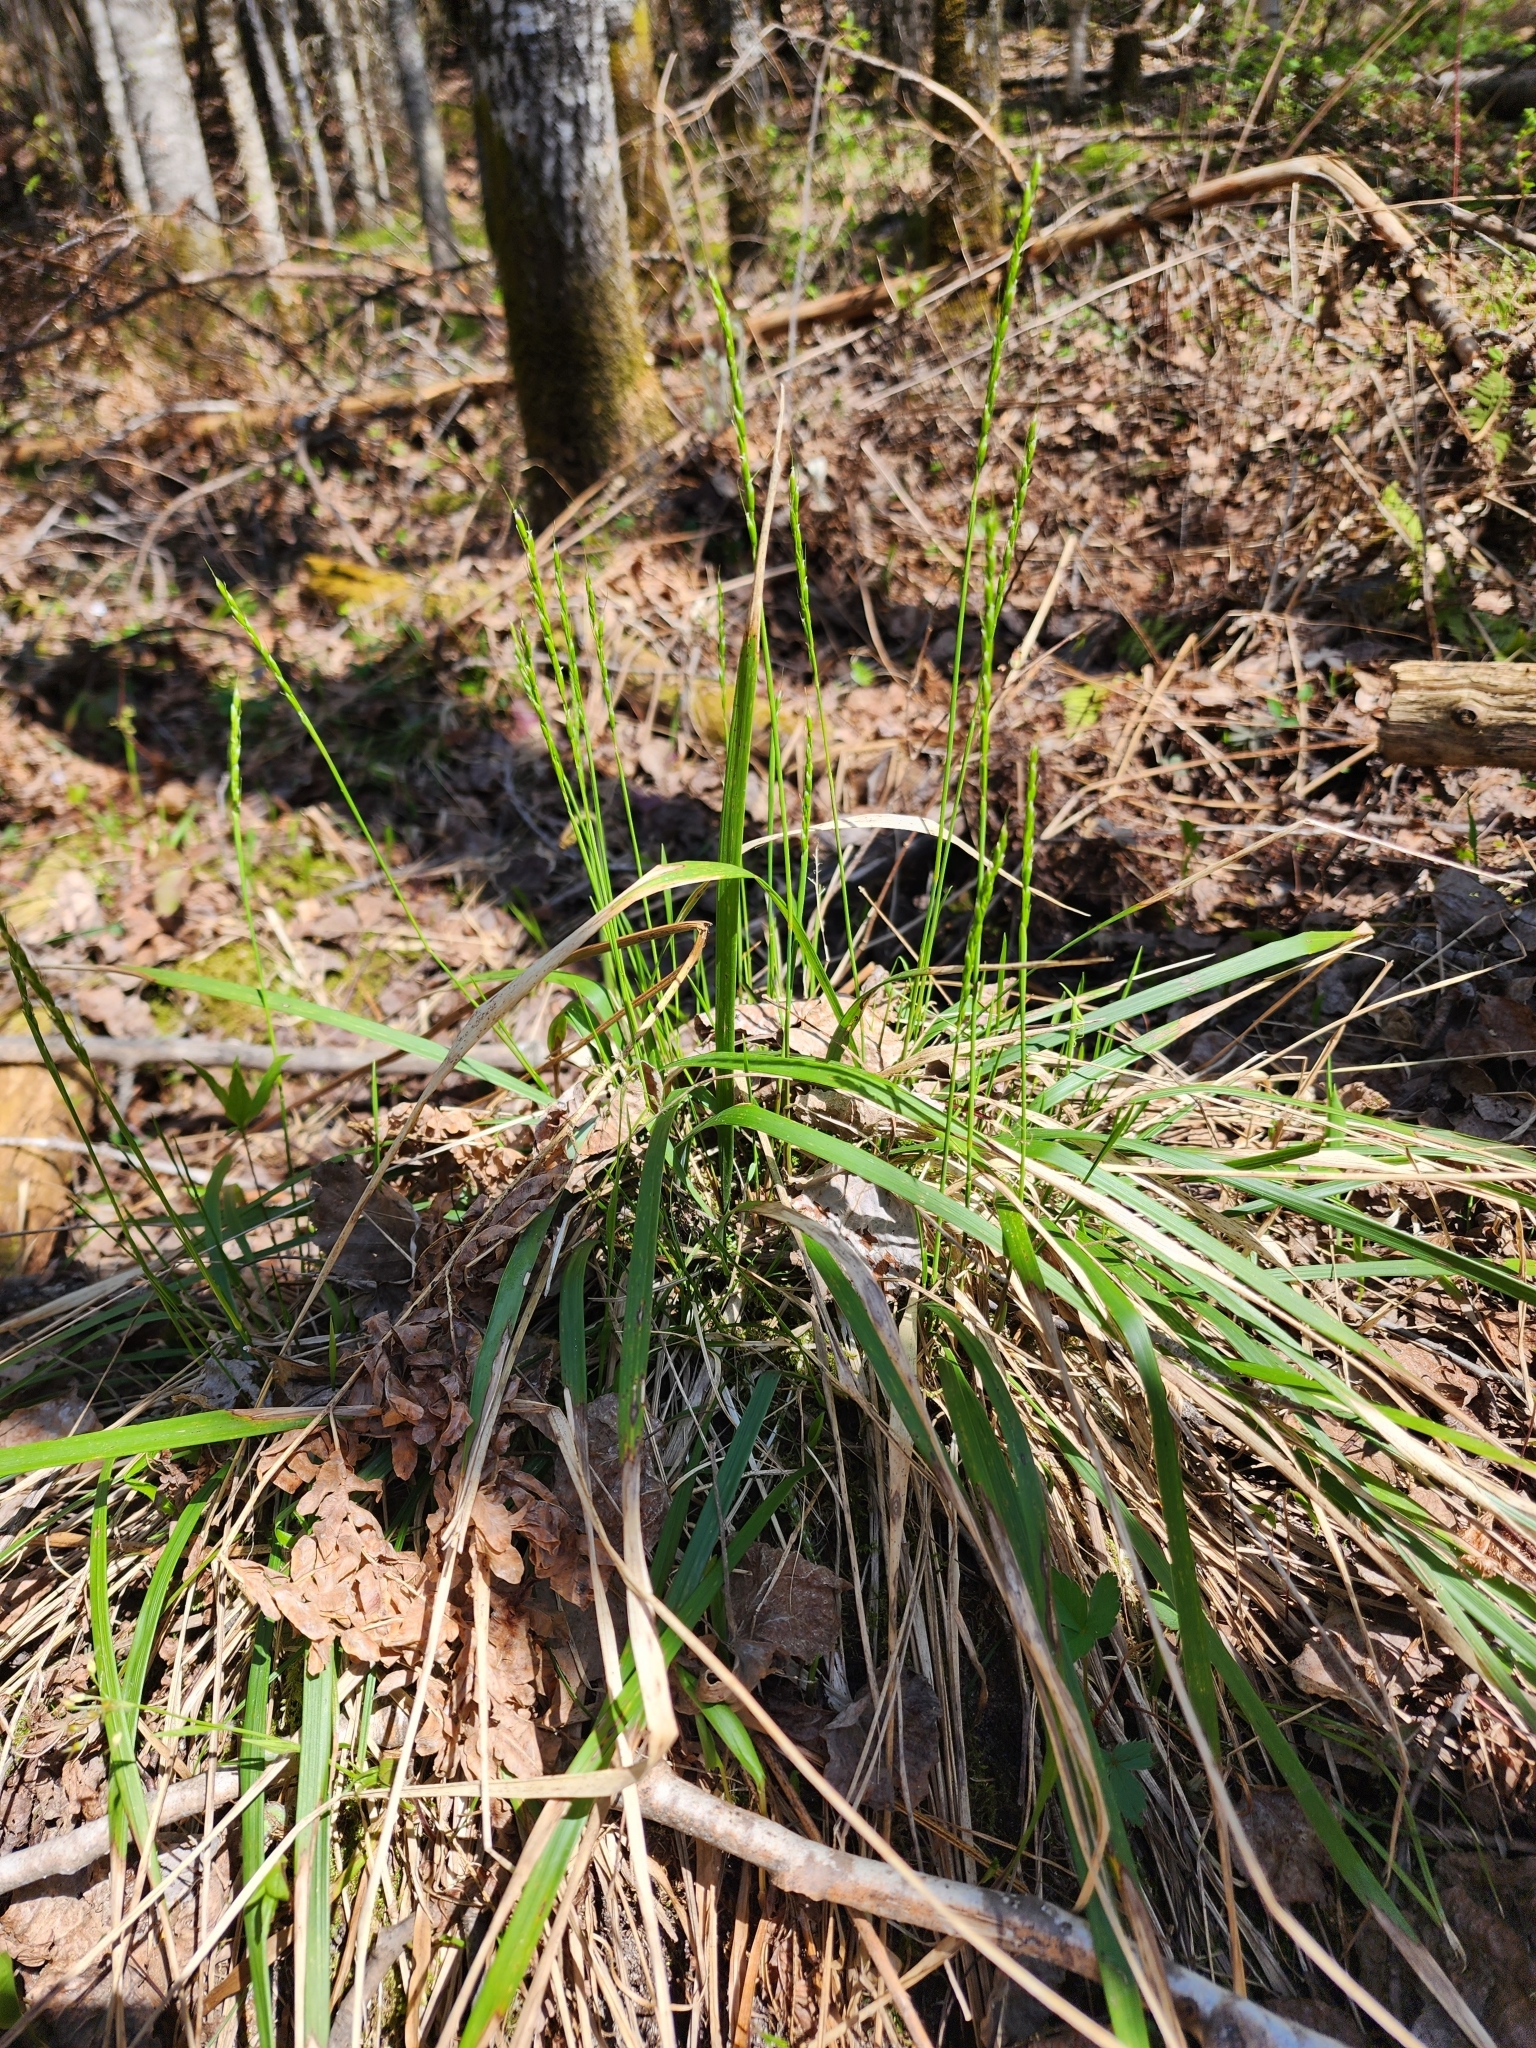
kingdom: Plantae
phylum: Tracheophyta
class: Liliopsida
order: Poales
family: Poaceae
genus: Oryzopsis
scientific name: Oryzopsis asperifolia
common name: Rough-leaved mountain rice
